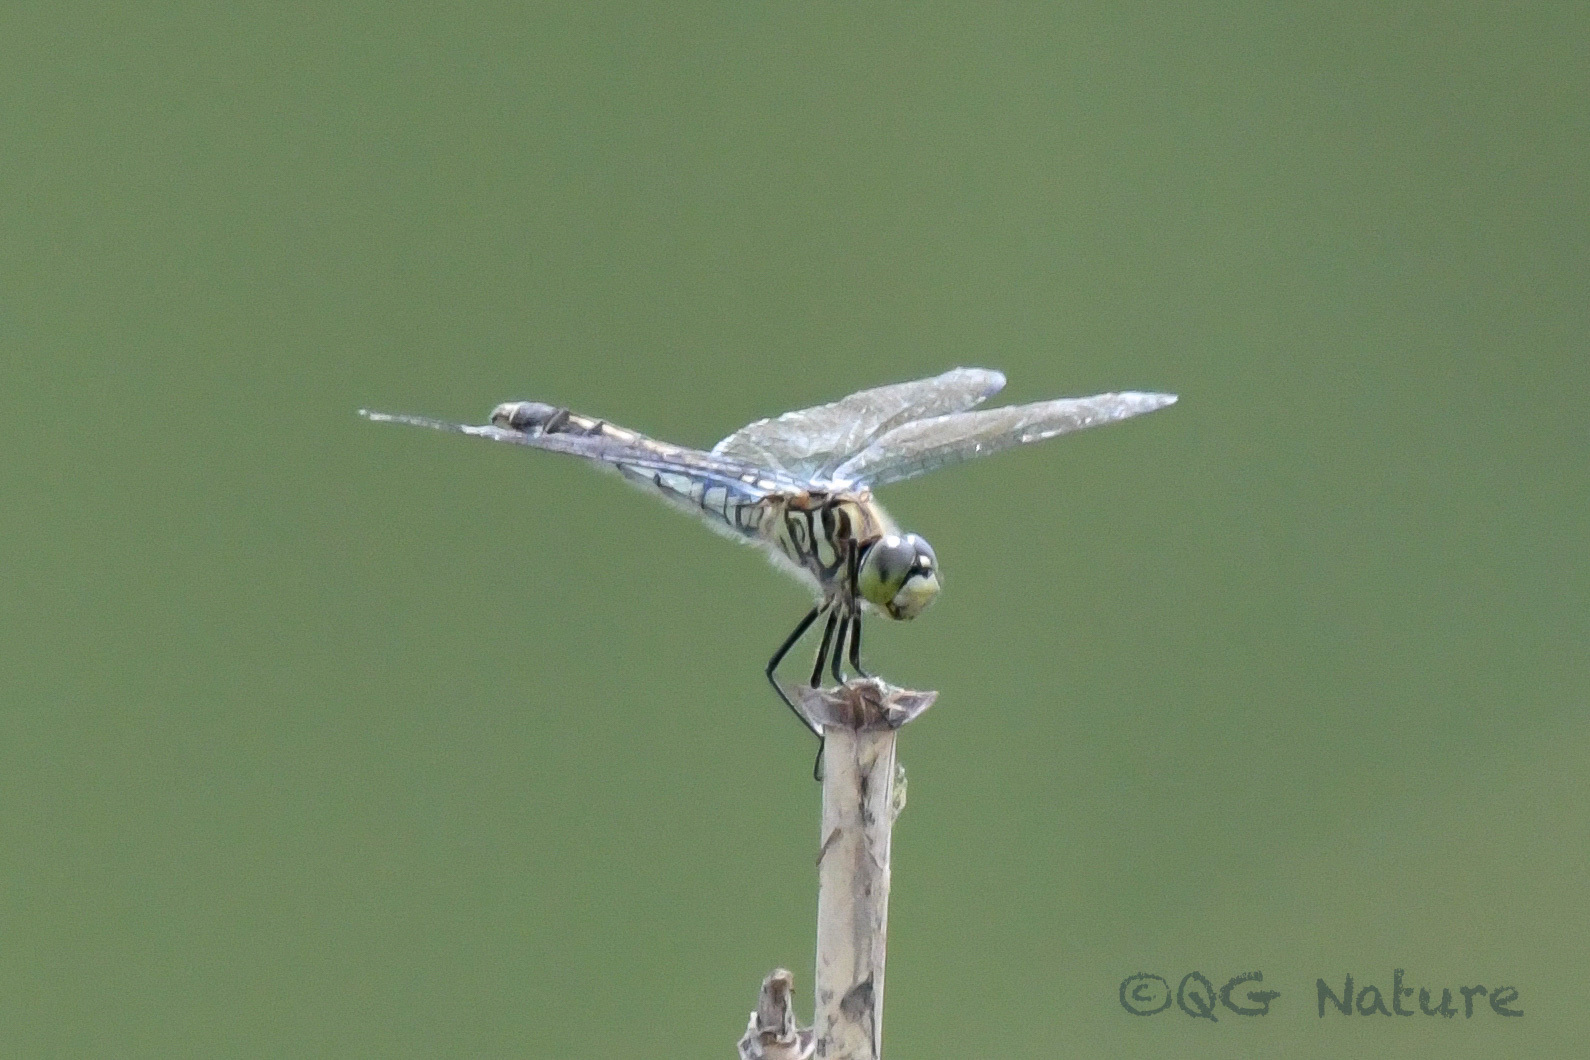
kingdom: Animalia
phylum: Arthropoda
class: Insecta
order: Odonata
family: Libellulidae
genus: Deielia
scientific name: Deielia phaon
